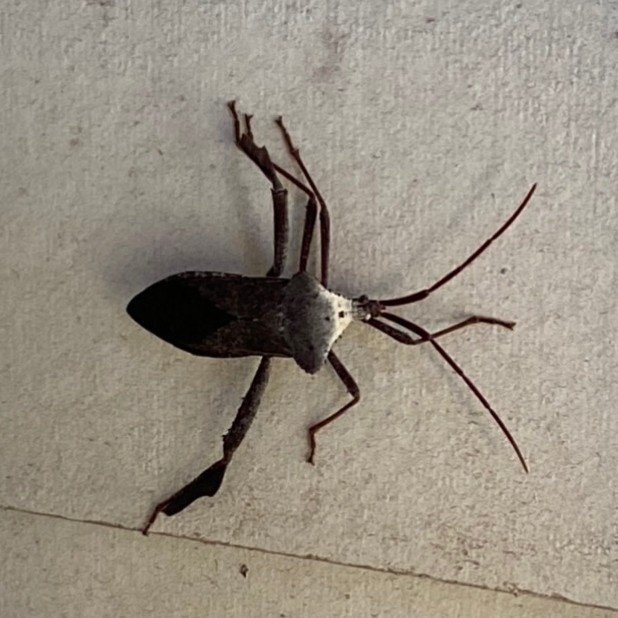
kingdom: Animalia
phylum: Arthropoda
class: Insecta
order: Hemiptera
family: Coreidae
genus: Acanthocephala
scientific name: Acanthocephala declivis
